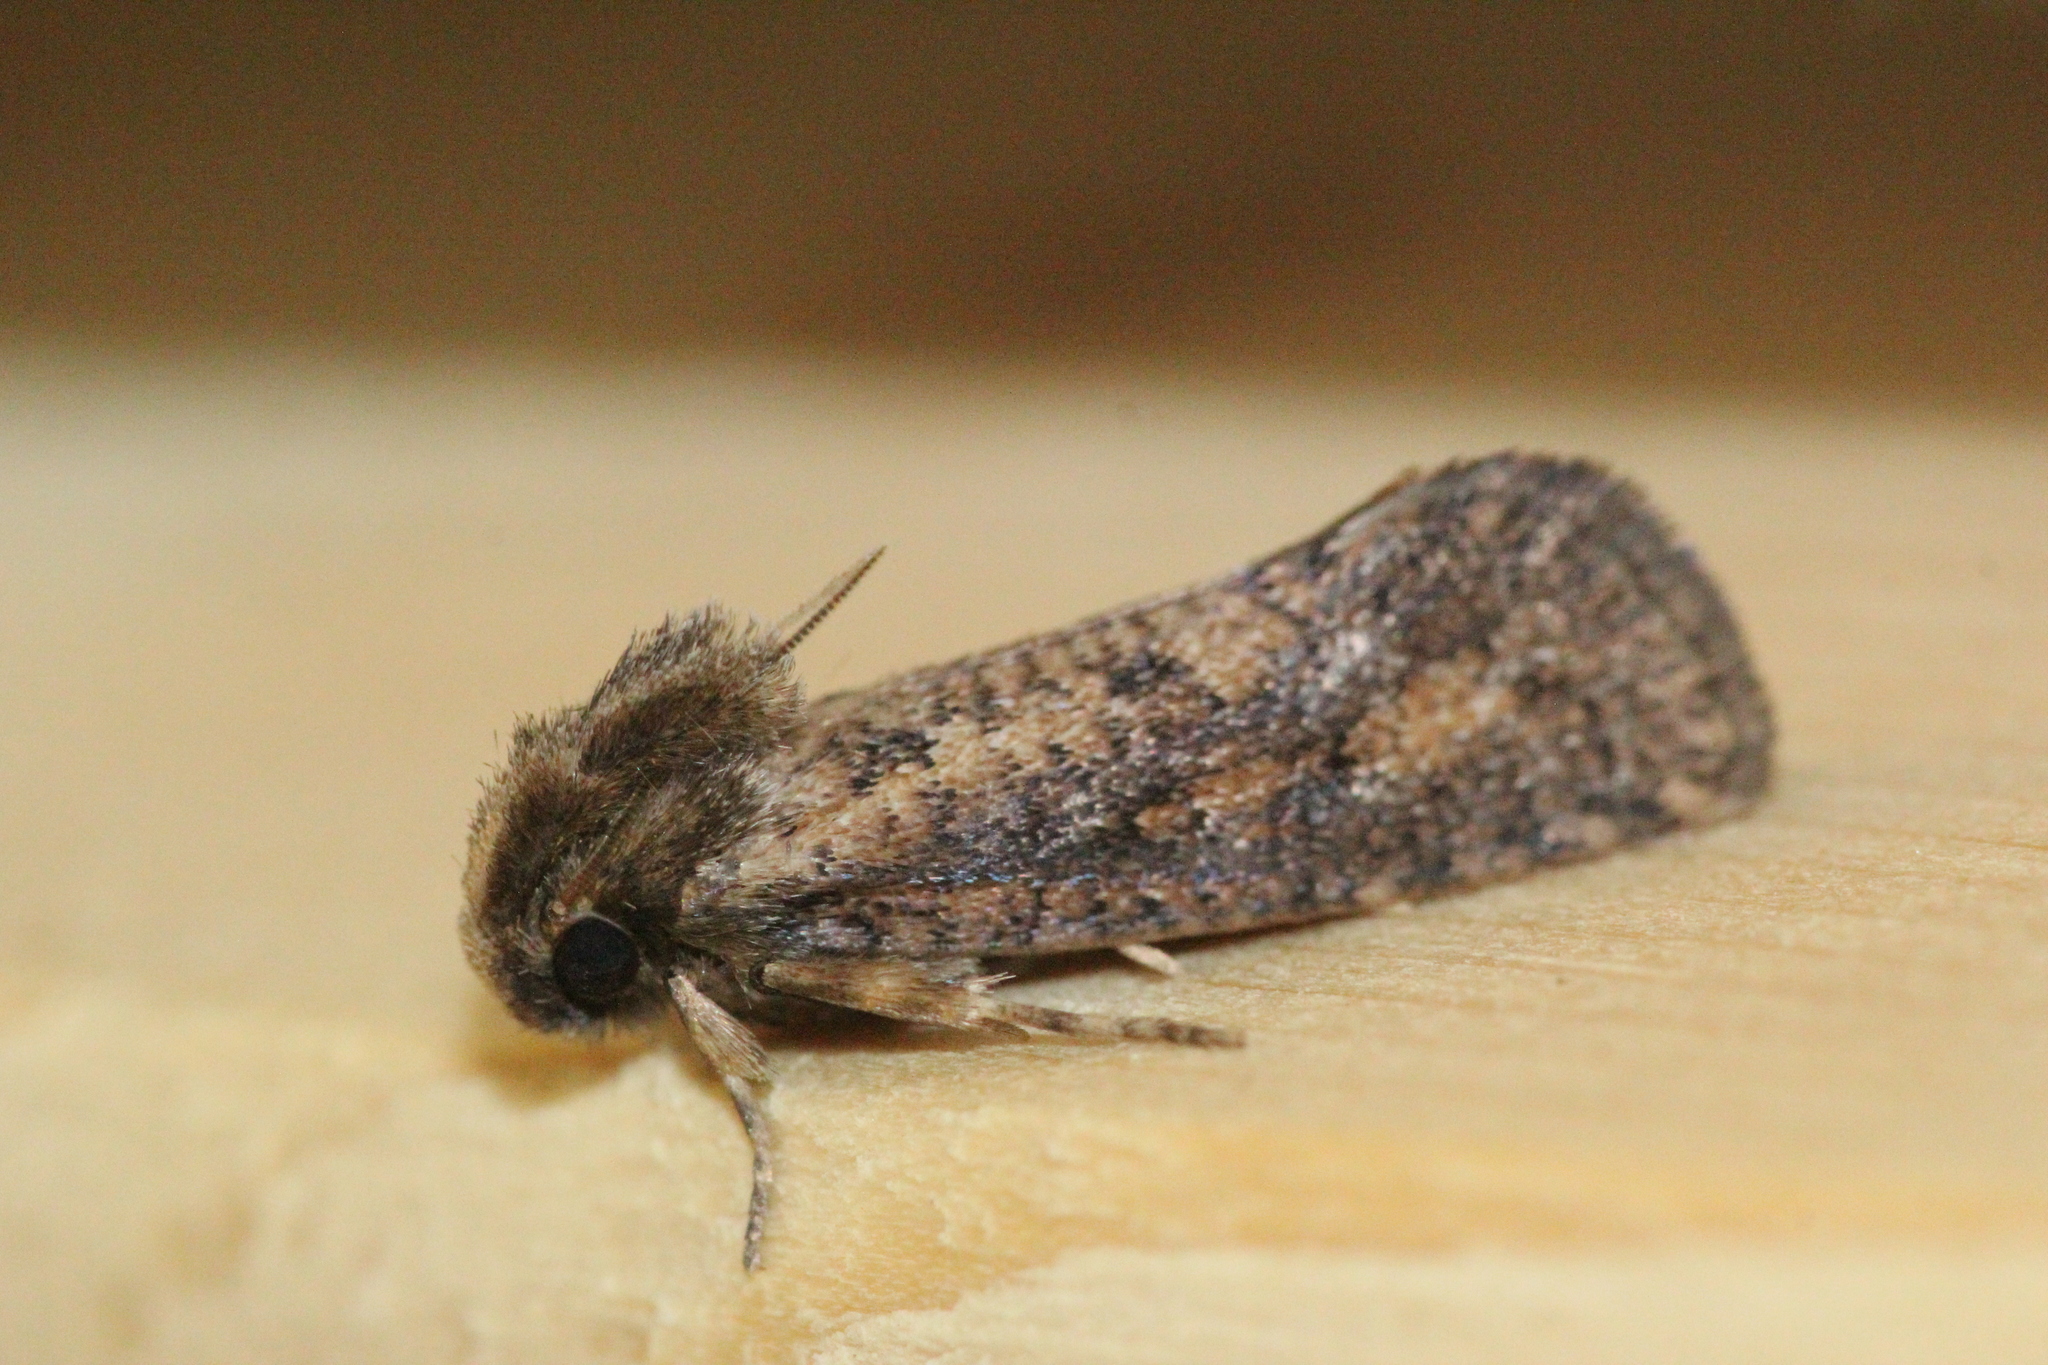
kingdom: Animalia
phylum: Arthropoda
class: Insecta
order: Lepidoptera
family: Tineidae
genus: Acrolophus
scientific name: Acrolophus popeanella
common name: Clemens' grass tubeworm moth
